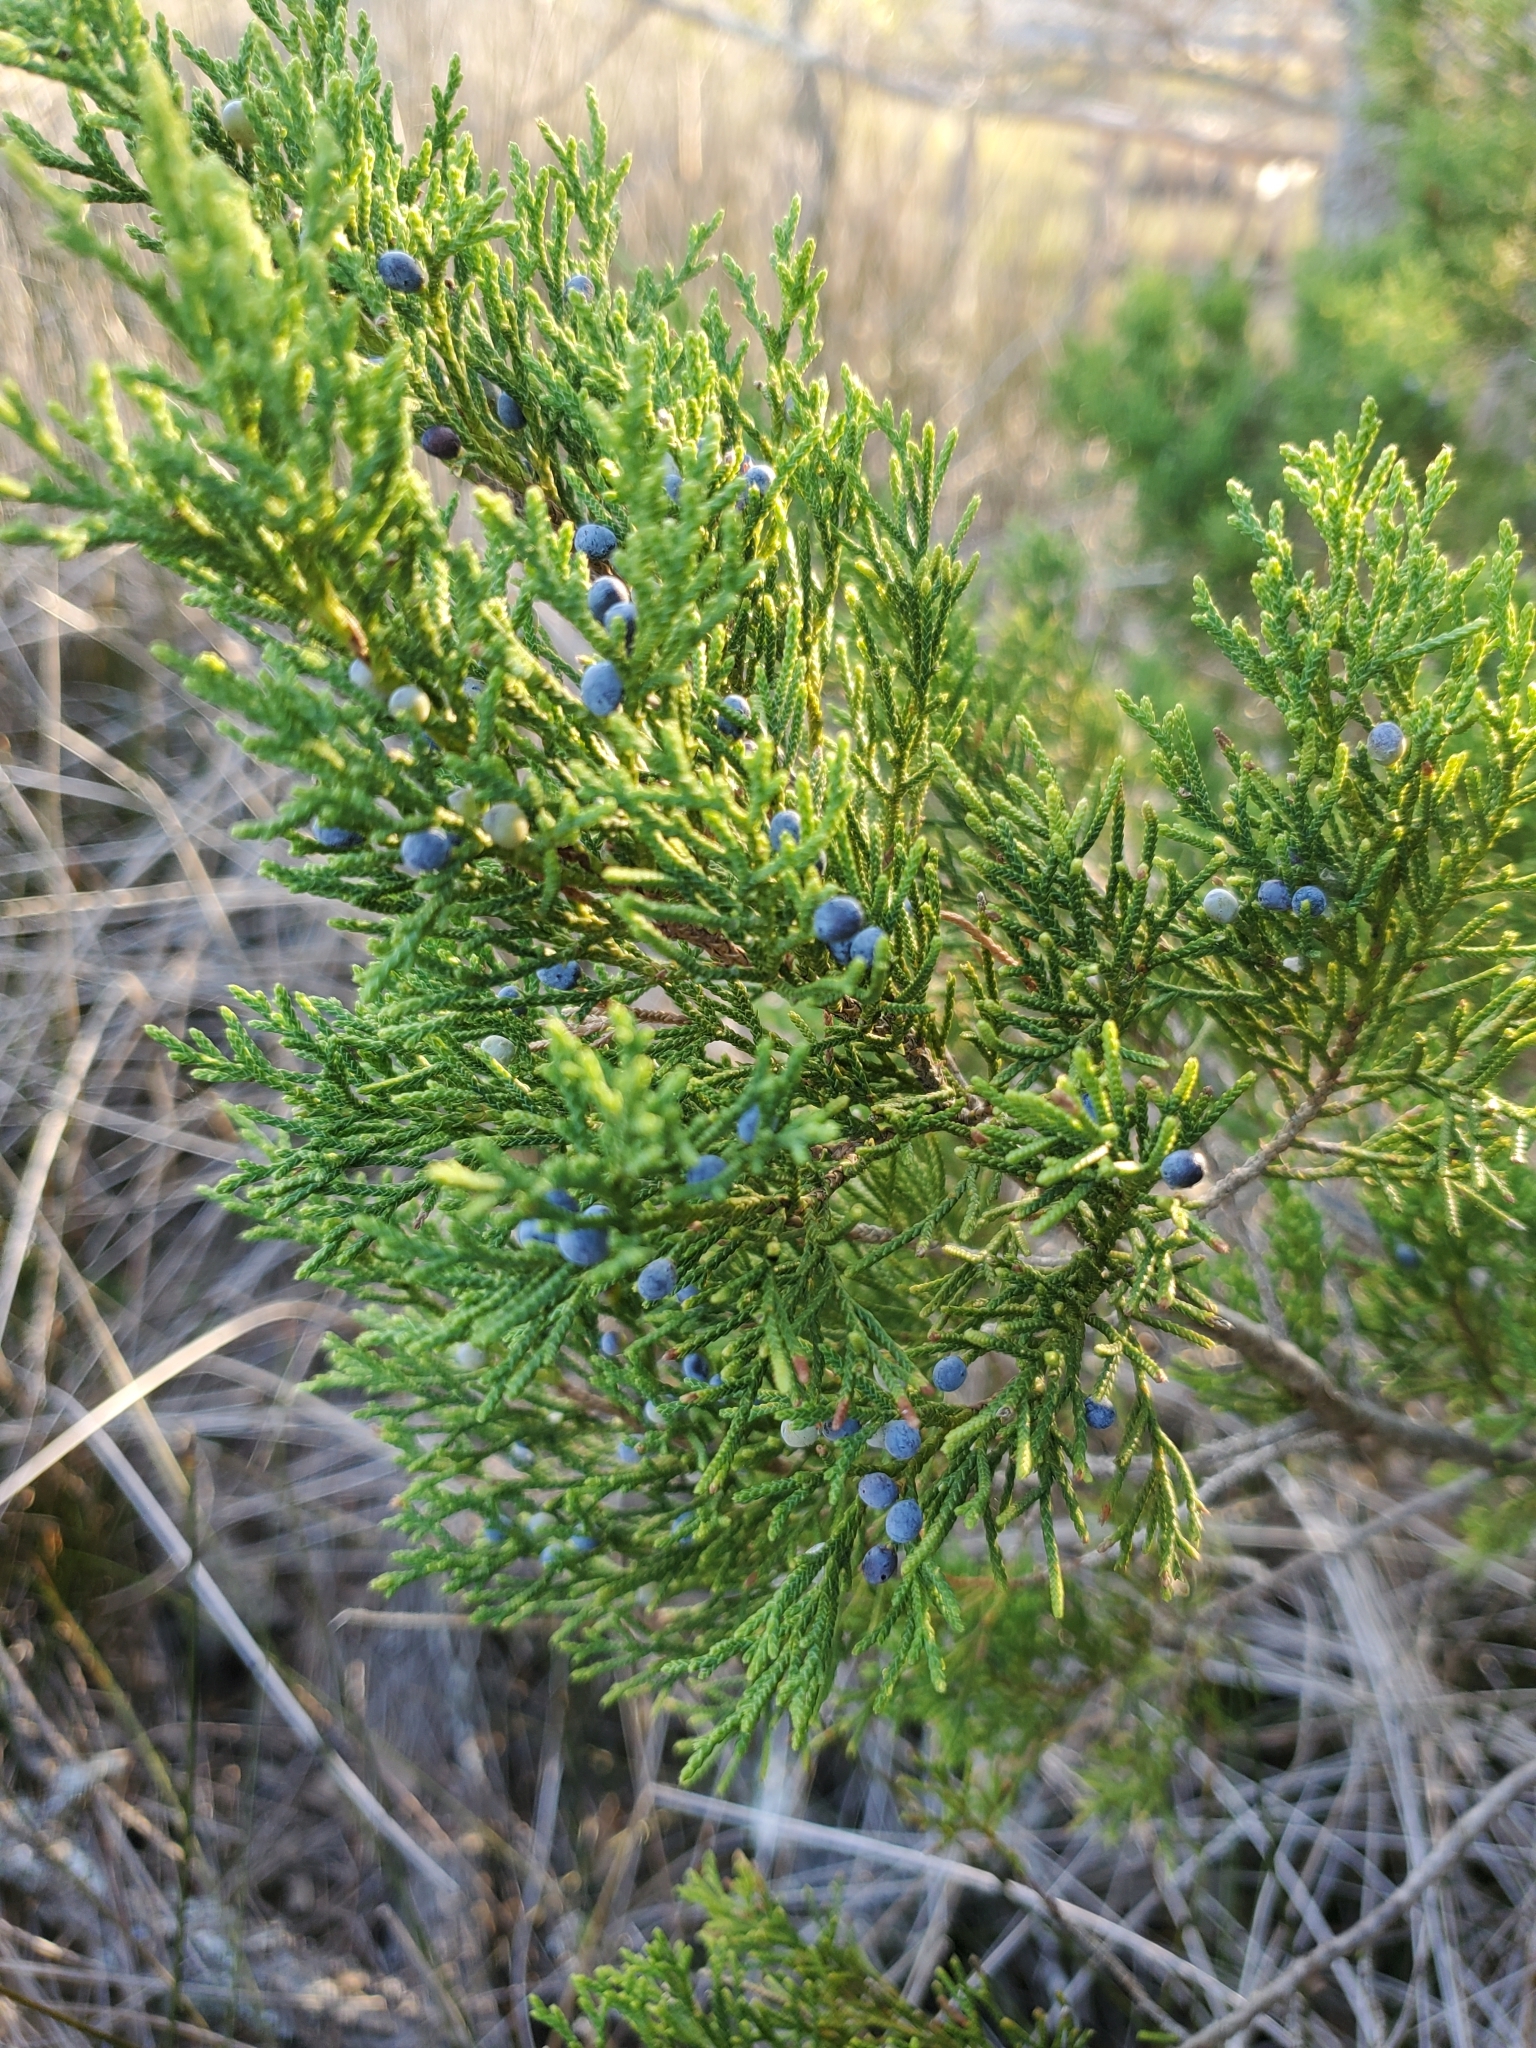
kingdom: Plantae
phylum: Tracheophyta
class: Pinopsida
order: Pinales
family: Cupressaceae
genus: Juniperus
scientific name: Juniperus virginiana
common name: Red juniper
